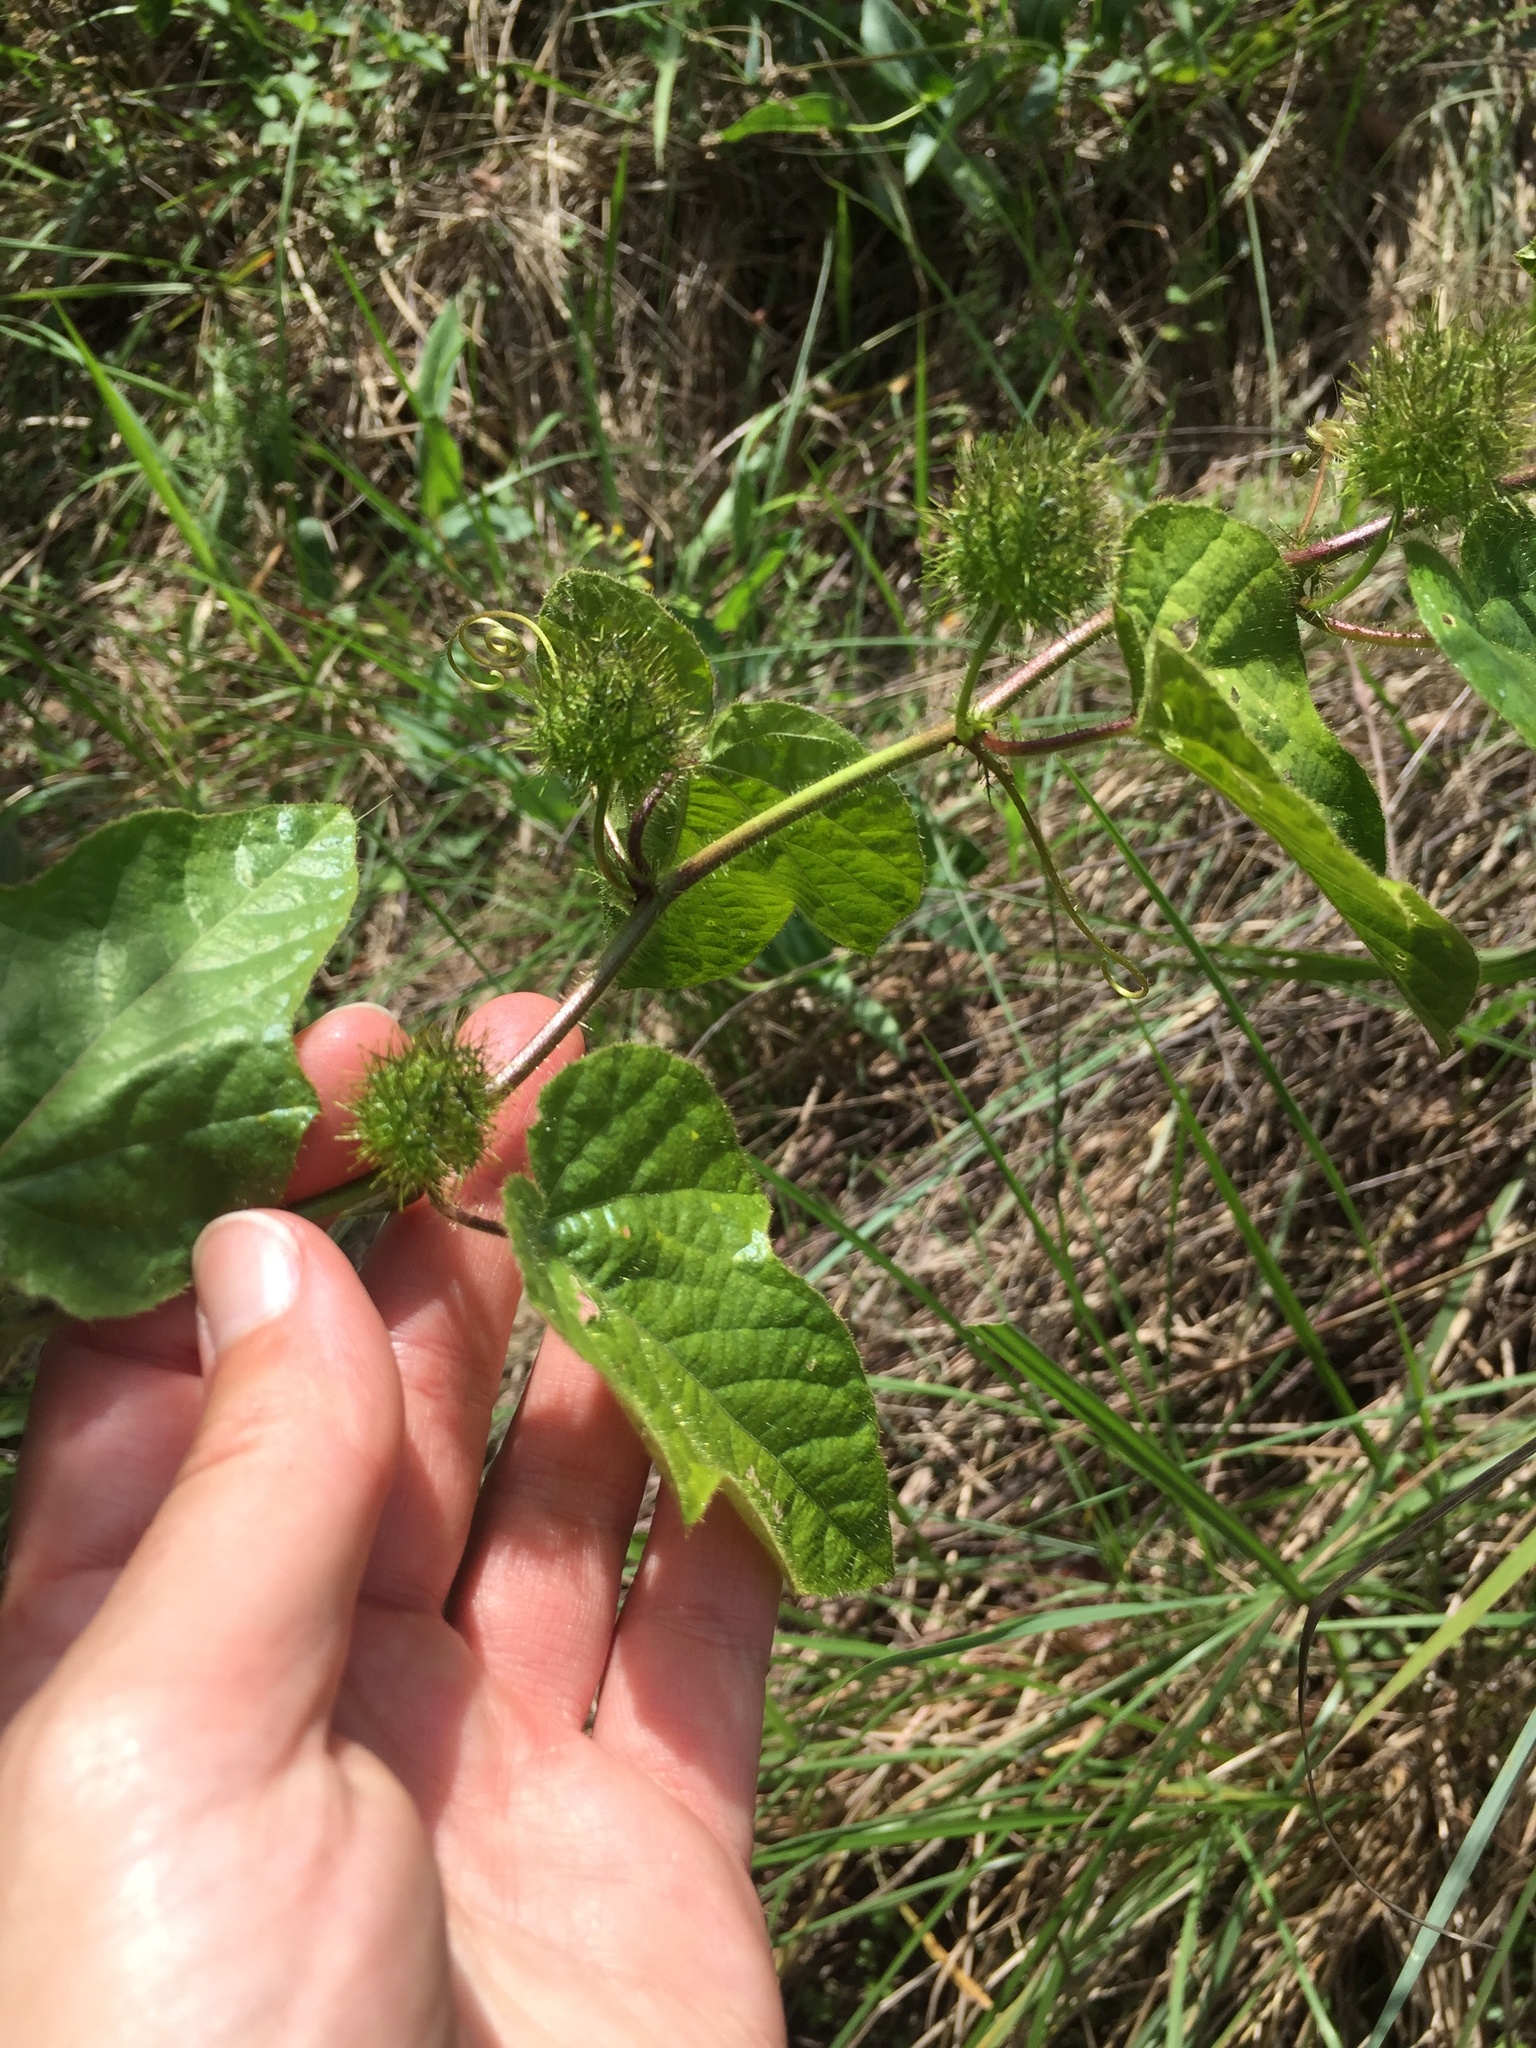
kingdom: Plantae
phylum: Tracheophyta
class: Magnoliopsida
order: Malpighiales
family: Passifloraceae
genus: Passiflora
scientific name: Passiflora foetida
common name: Fetid passionflower
